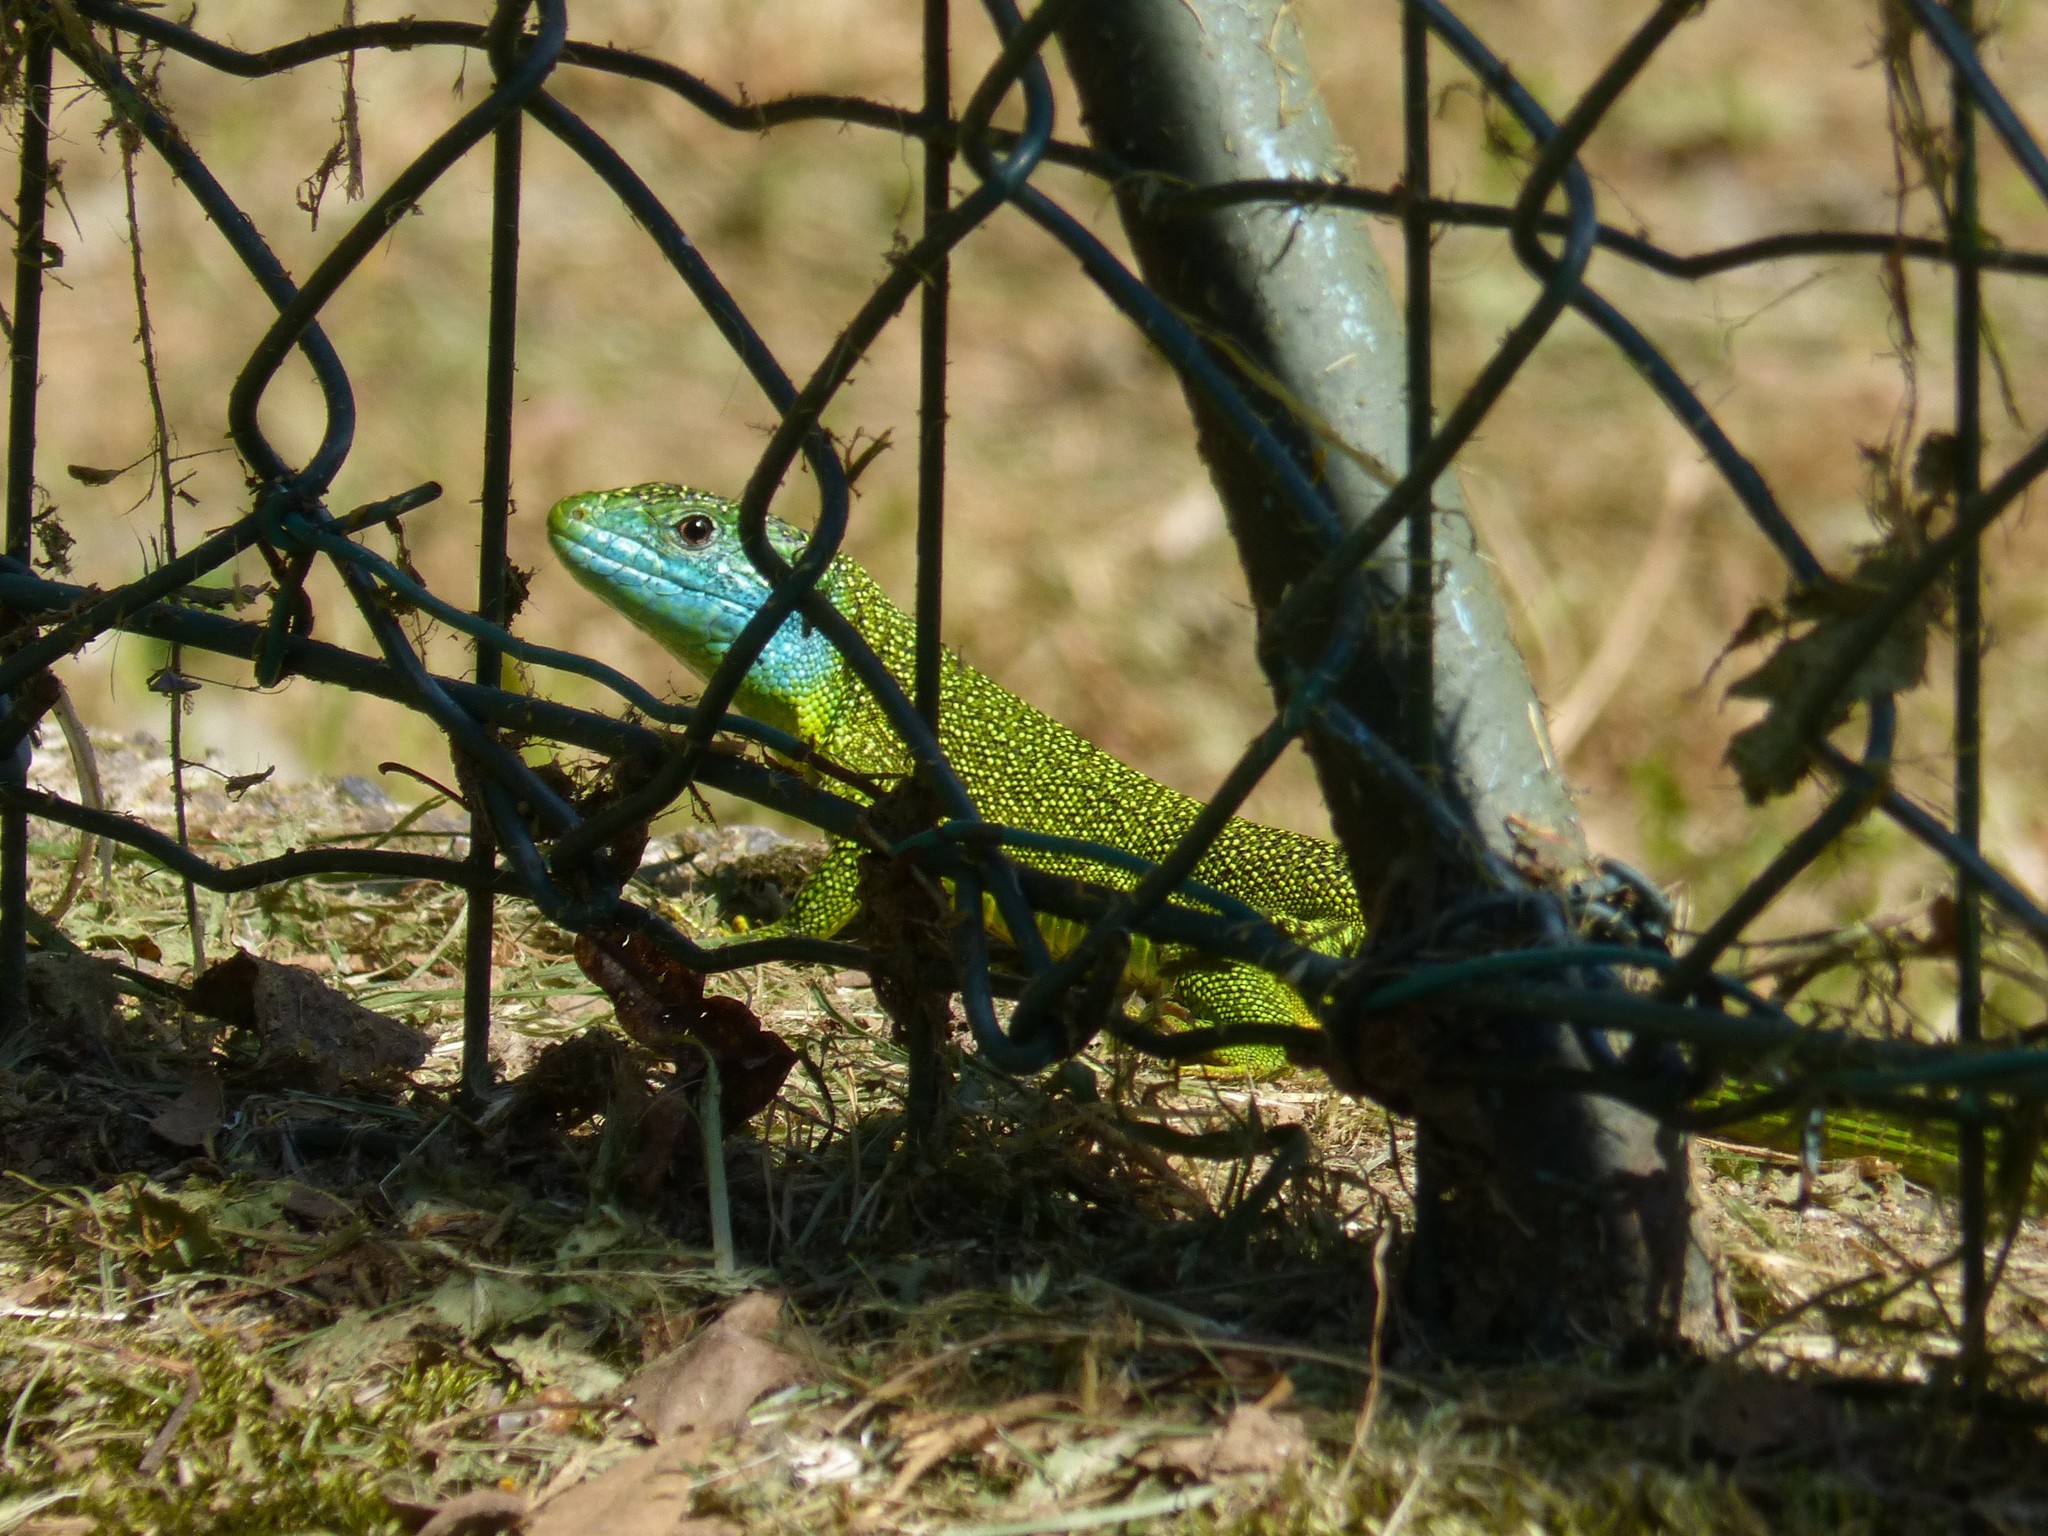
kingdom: Animalia
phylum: Chordata
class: Squamata
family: Lacertidae
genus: Lacerta
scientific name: Lacerta bilineata
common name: Western green lizard
